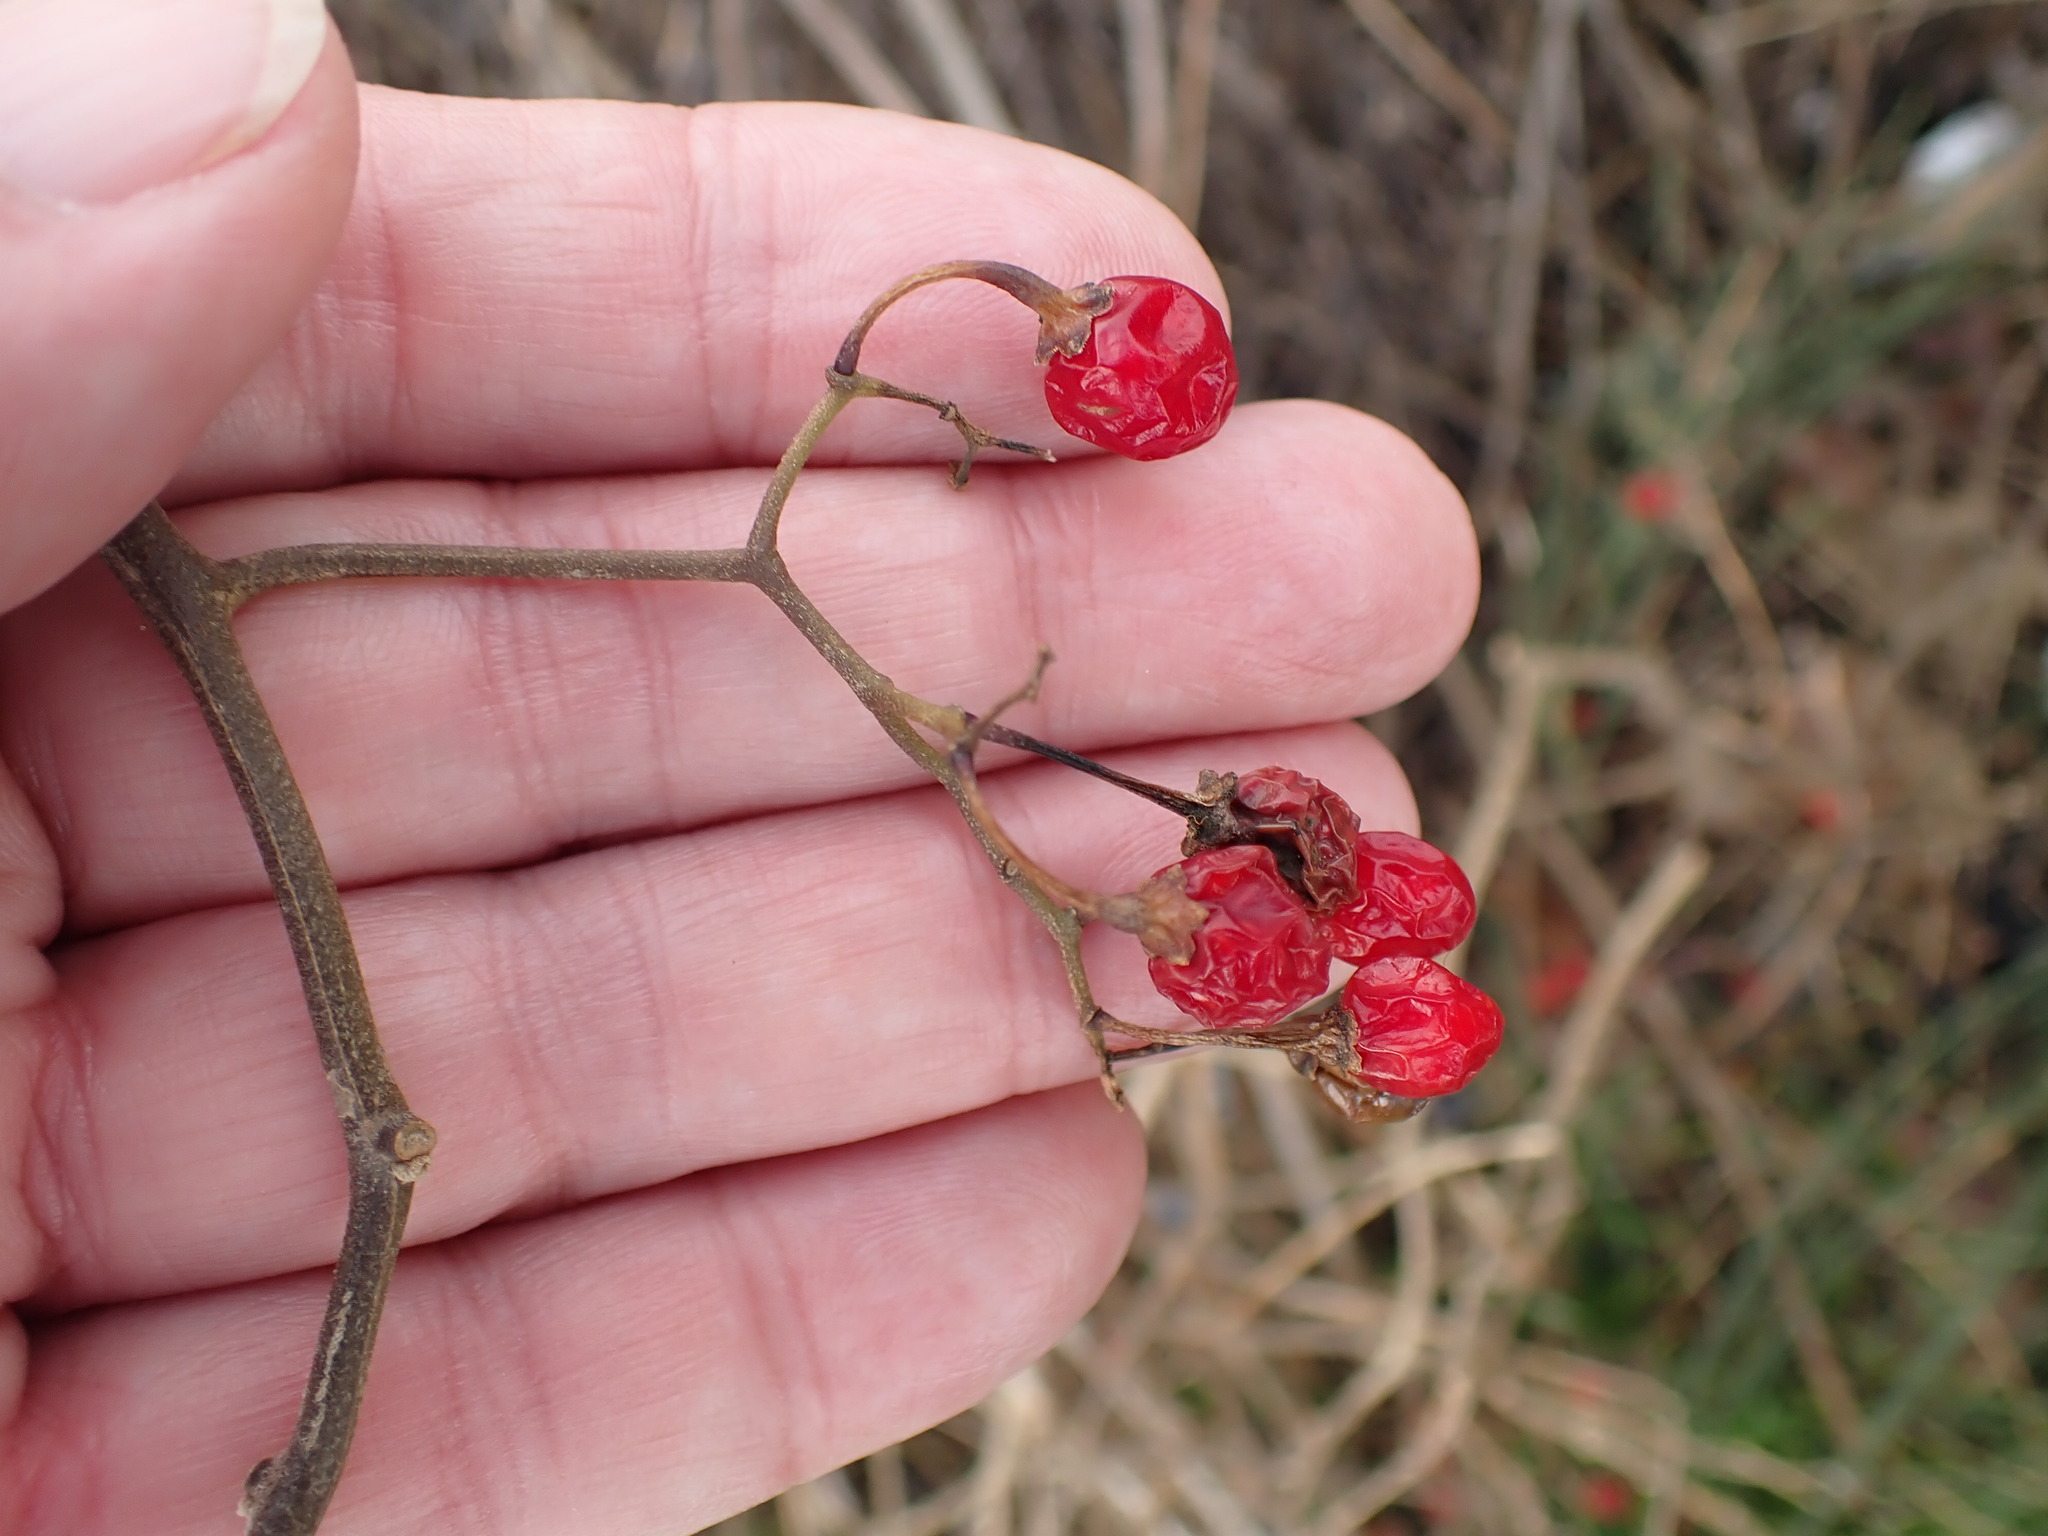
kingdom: Plantae
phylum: Tracheophyta
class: Magnoliopsida
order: Solanales
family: Solanaceae
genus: Solanum
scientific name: Solanum dulcamara
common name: Climbing nightshade
